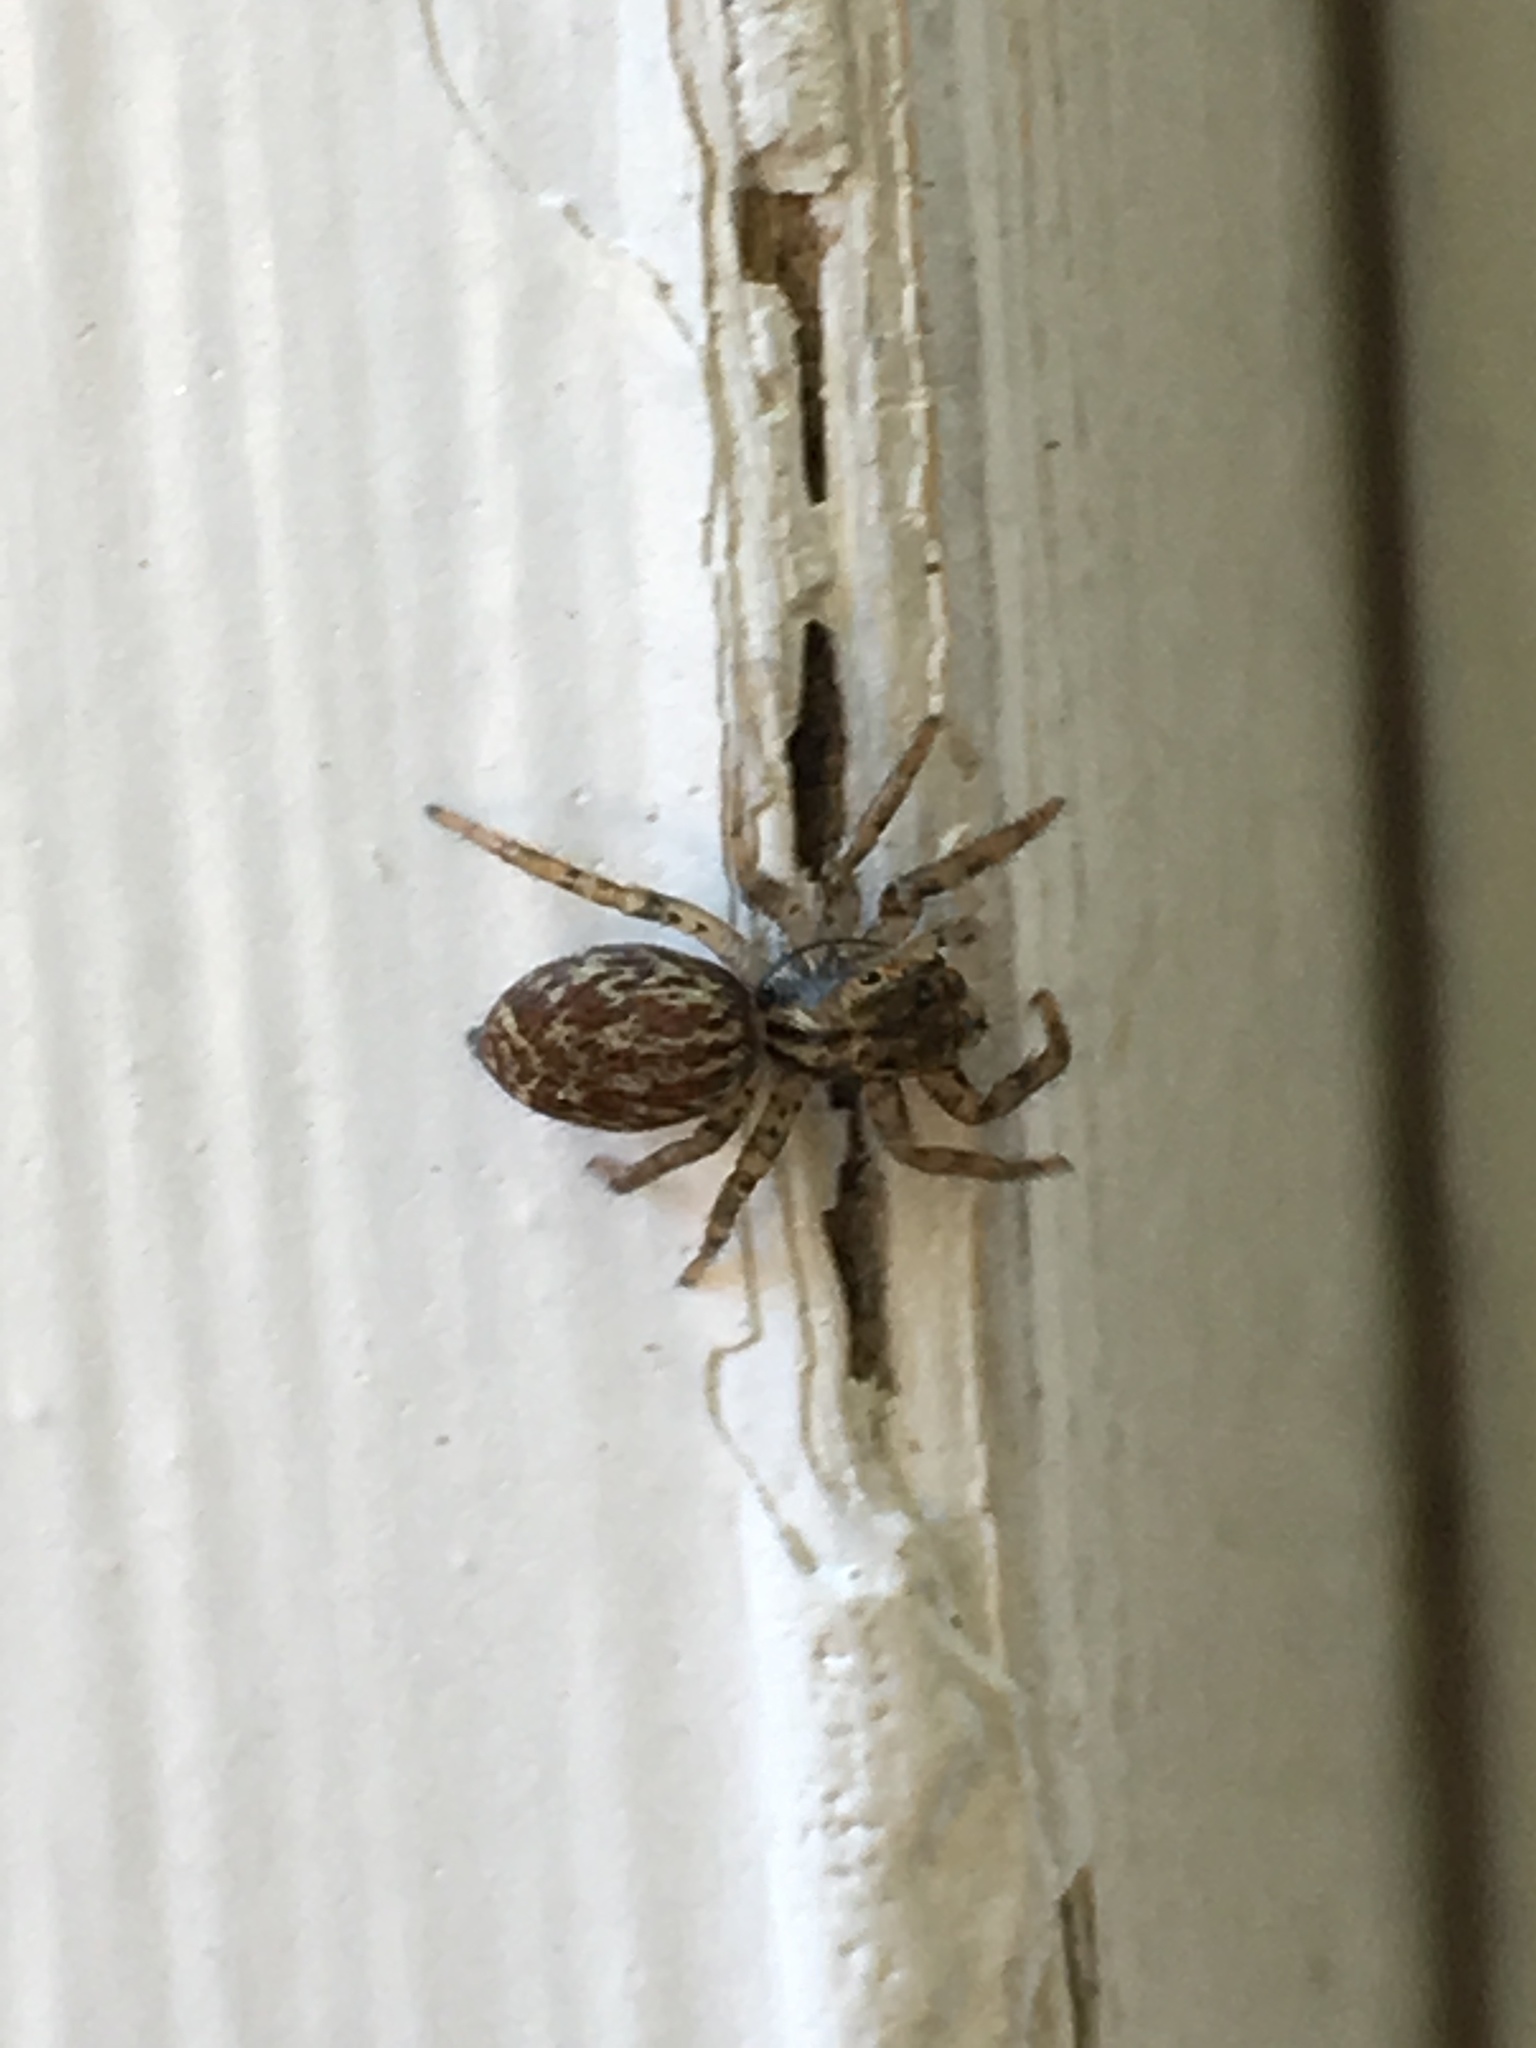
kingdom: Animalia
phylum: Arthropoda
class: Arachnida
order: Araneae
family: Salticidae
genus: Maevia
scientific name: Maevia inclemens
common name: Dimorphic jumper
